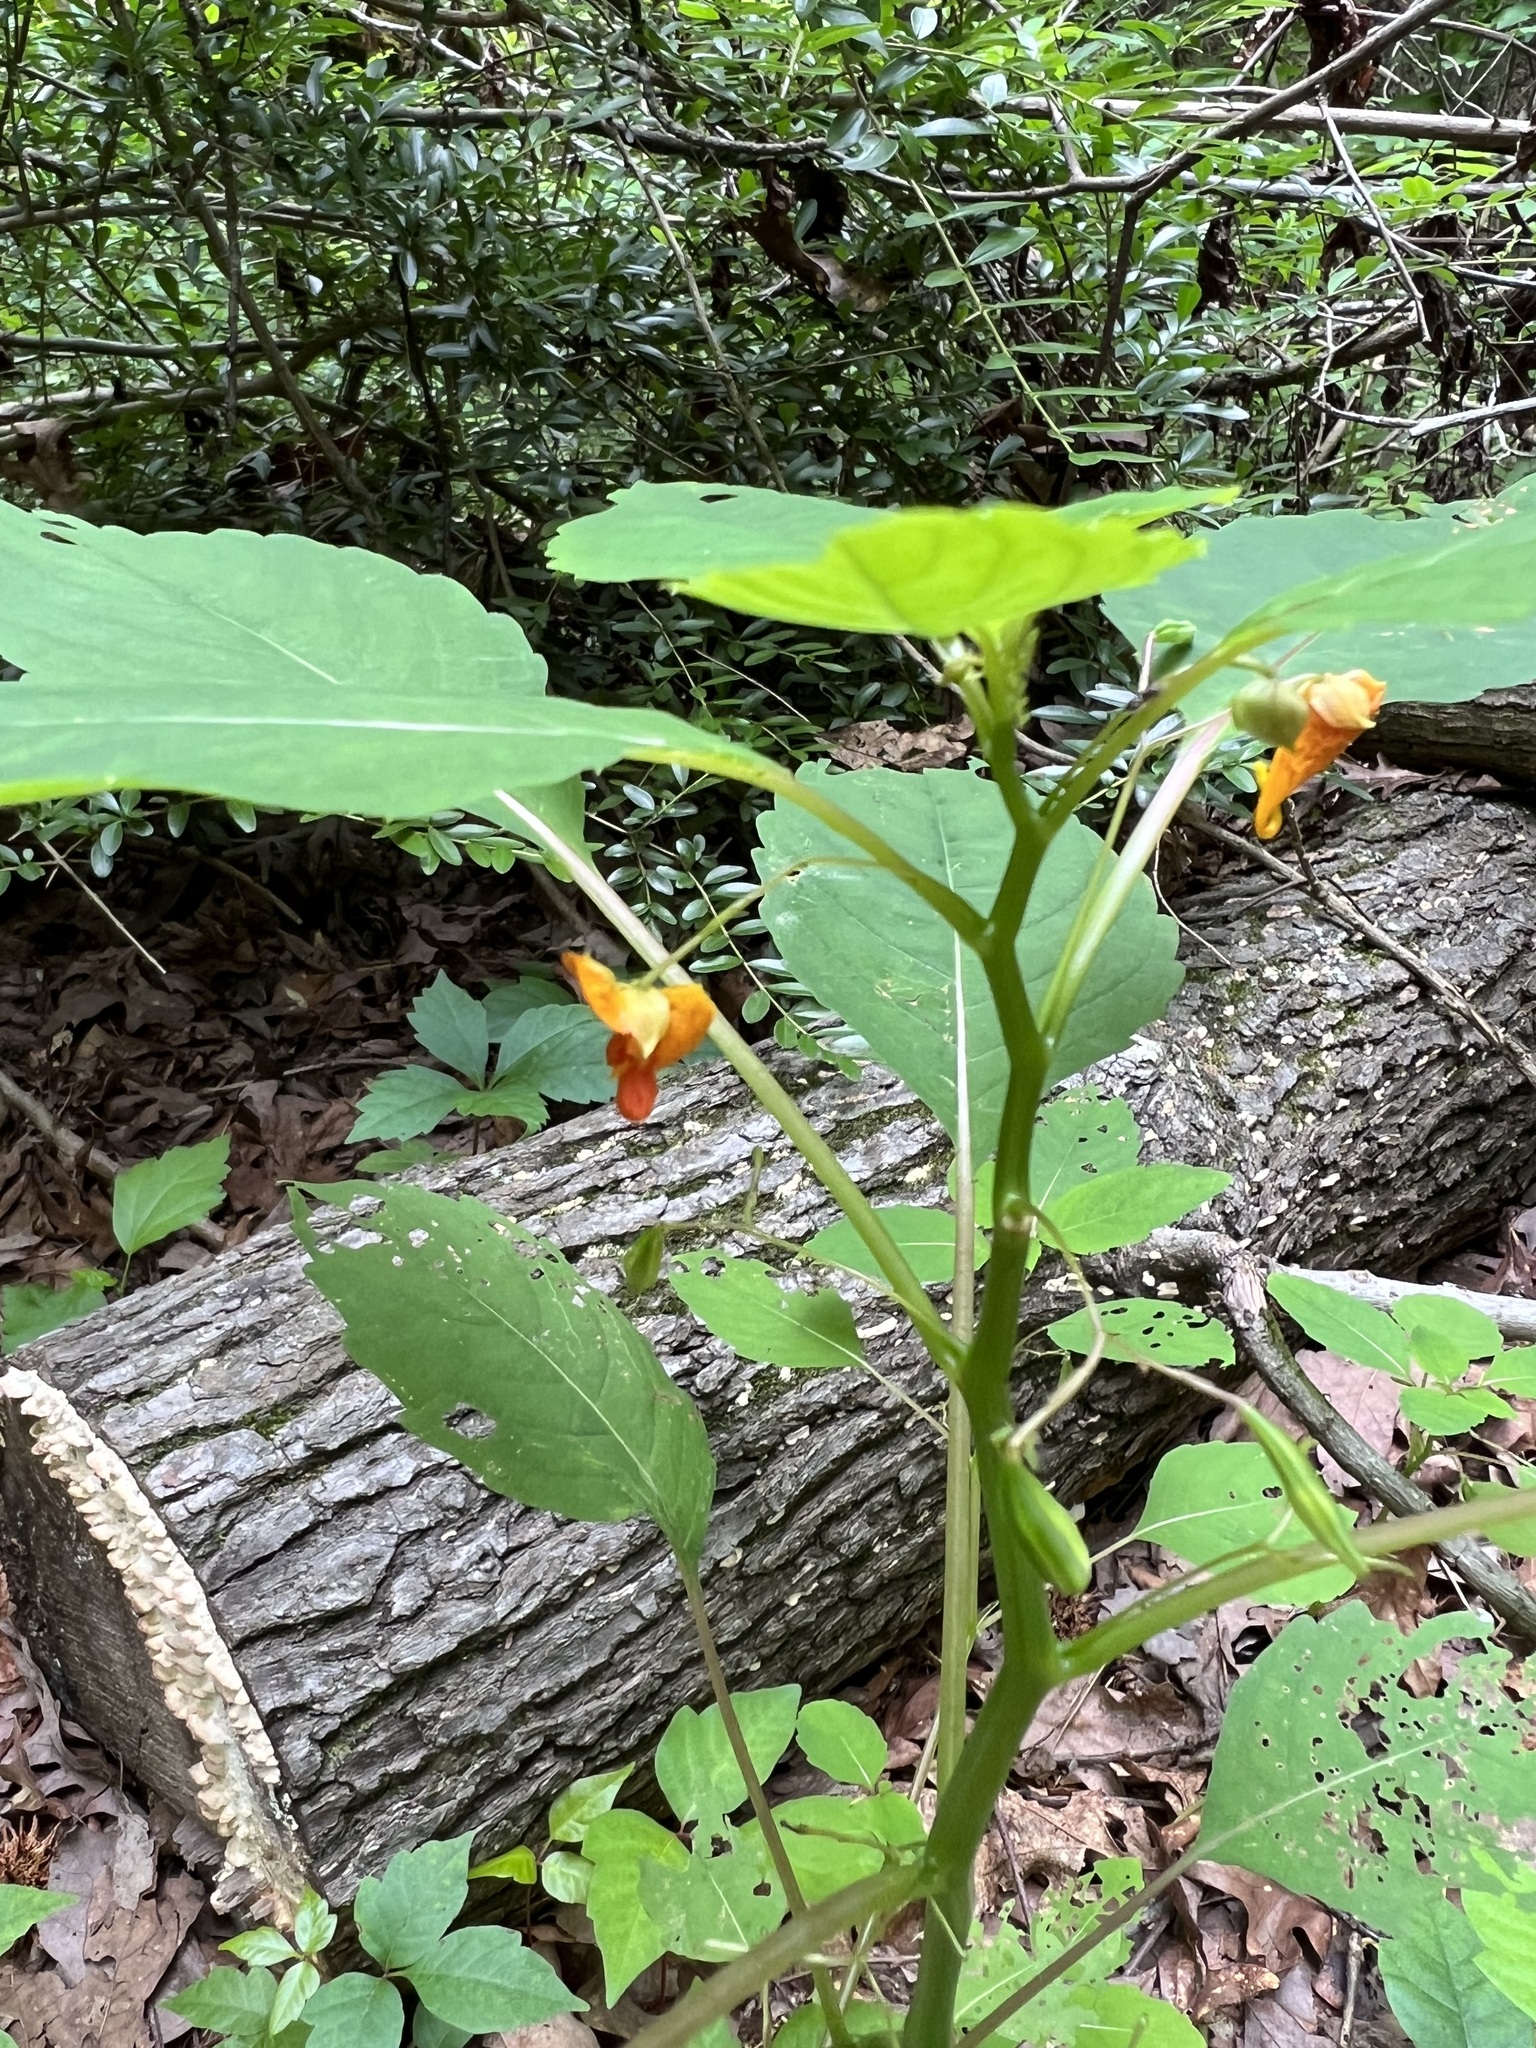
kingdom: Plantae
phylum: Tracheophyta
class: Magnoliopsida
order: Ericales
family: Balsaminaceae
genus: Impatiens
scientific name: Impatiens capensis
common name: Orange balsam
